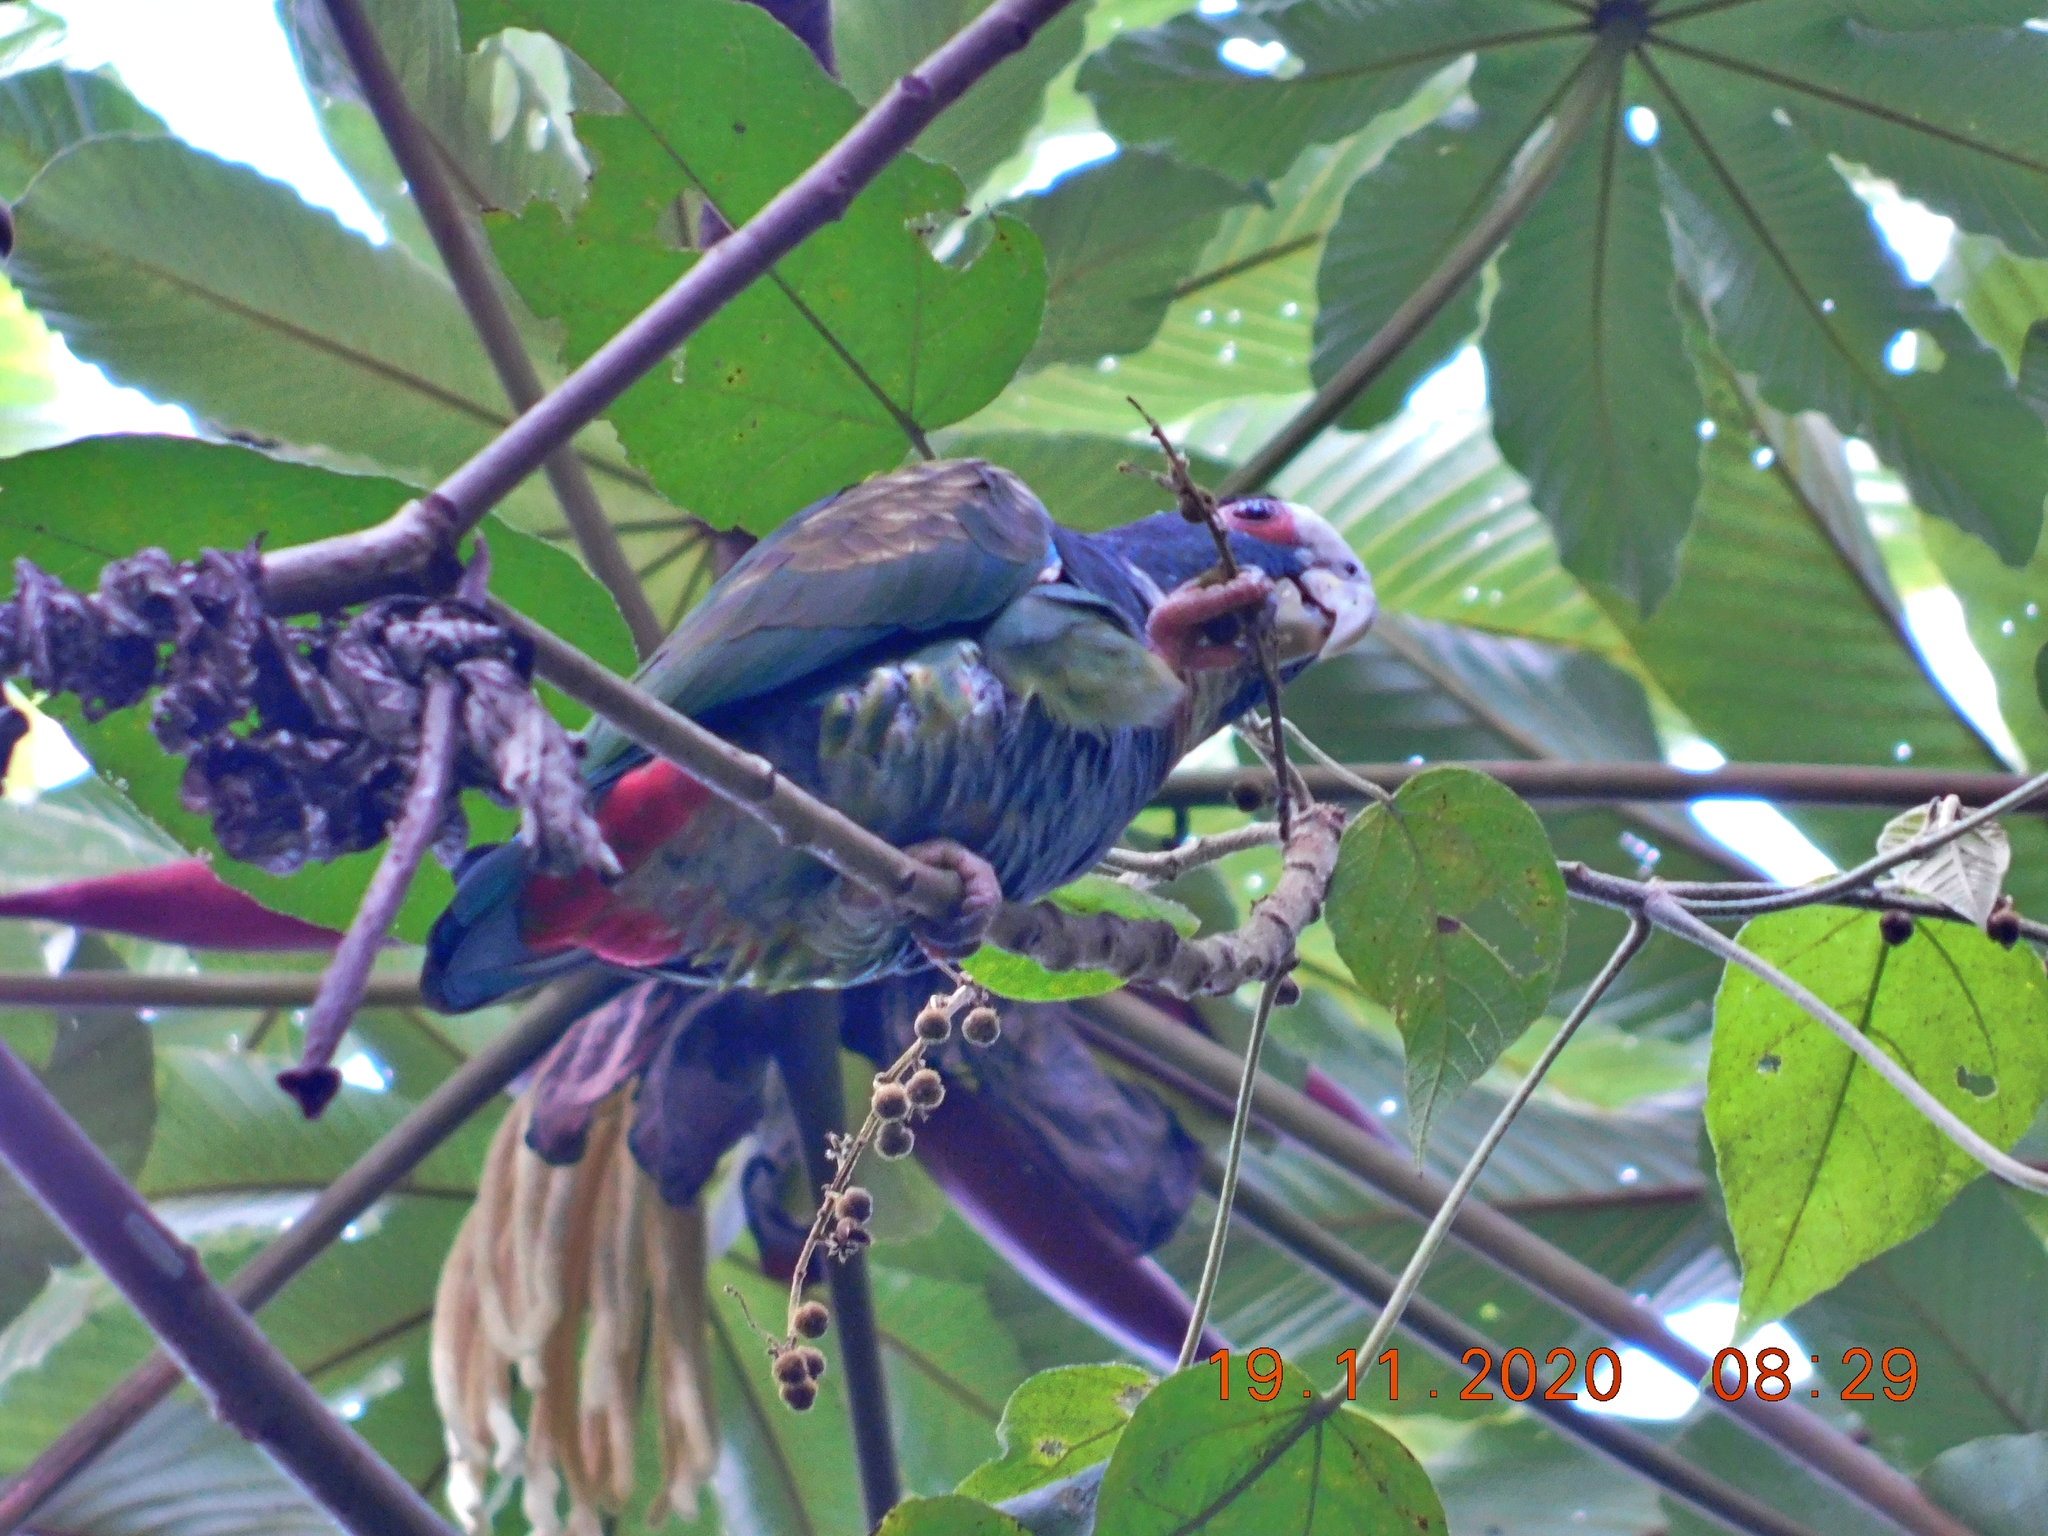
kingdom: Animalia
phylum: Chordata
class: Aves
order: Psittaciformes
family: Psittacidae
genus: Pionus
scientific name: Pionus senilis
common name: White-crowned parrot
